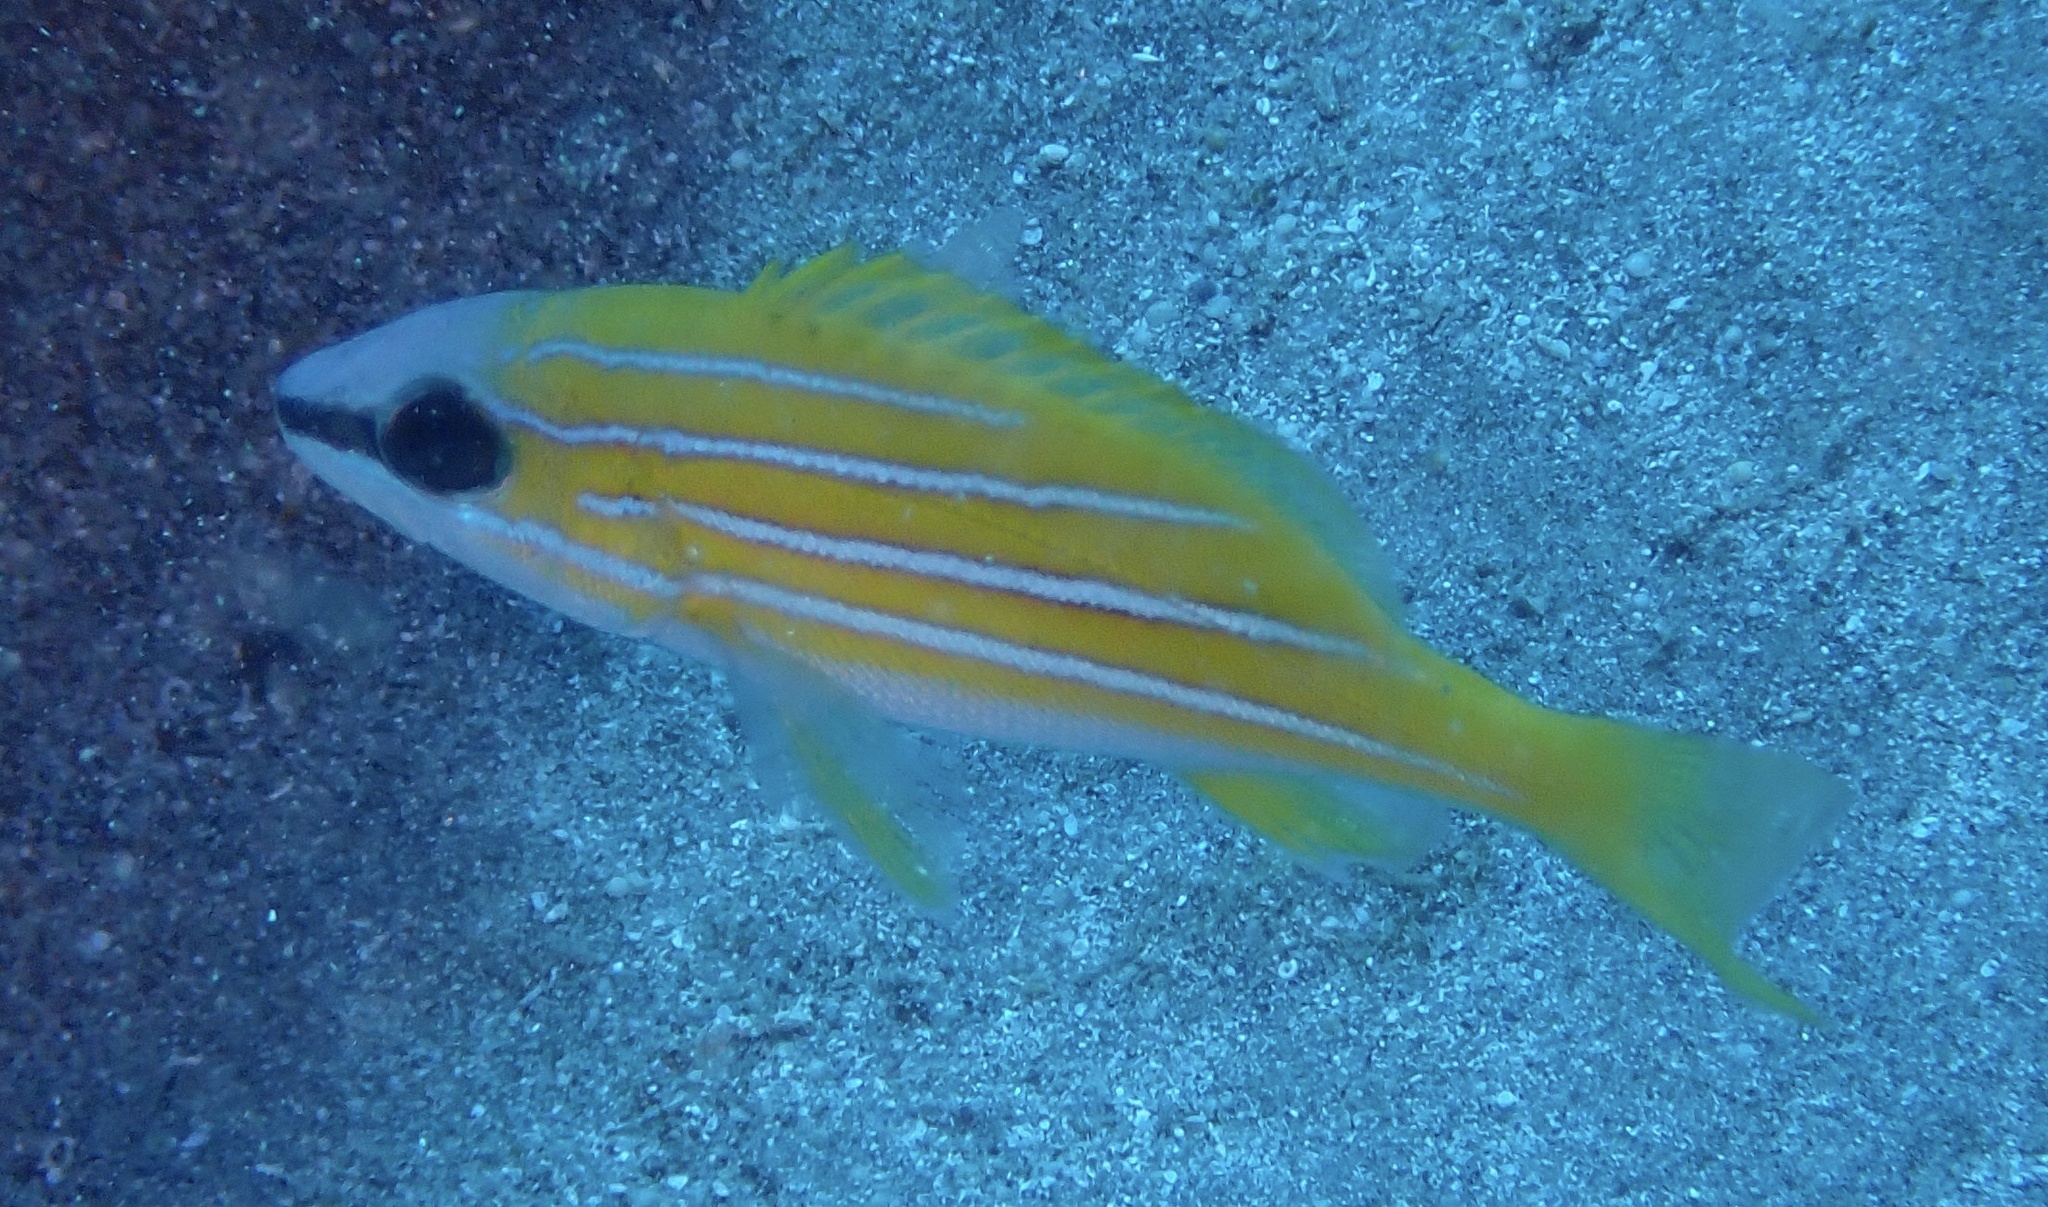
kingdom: Animalia
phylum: Chordata
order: Perciformes
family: Lutjanidae
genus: Lutjanus
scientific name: Lutjanus kasmira
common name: Common bluestripe snapper
